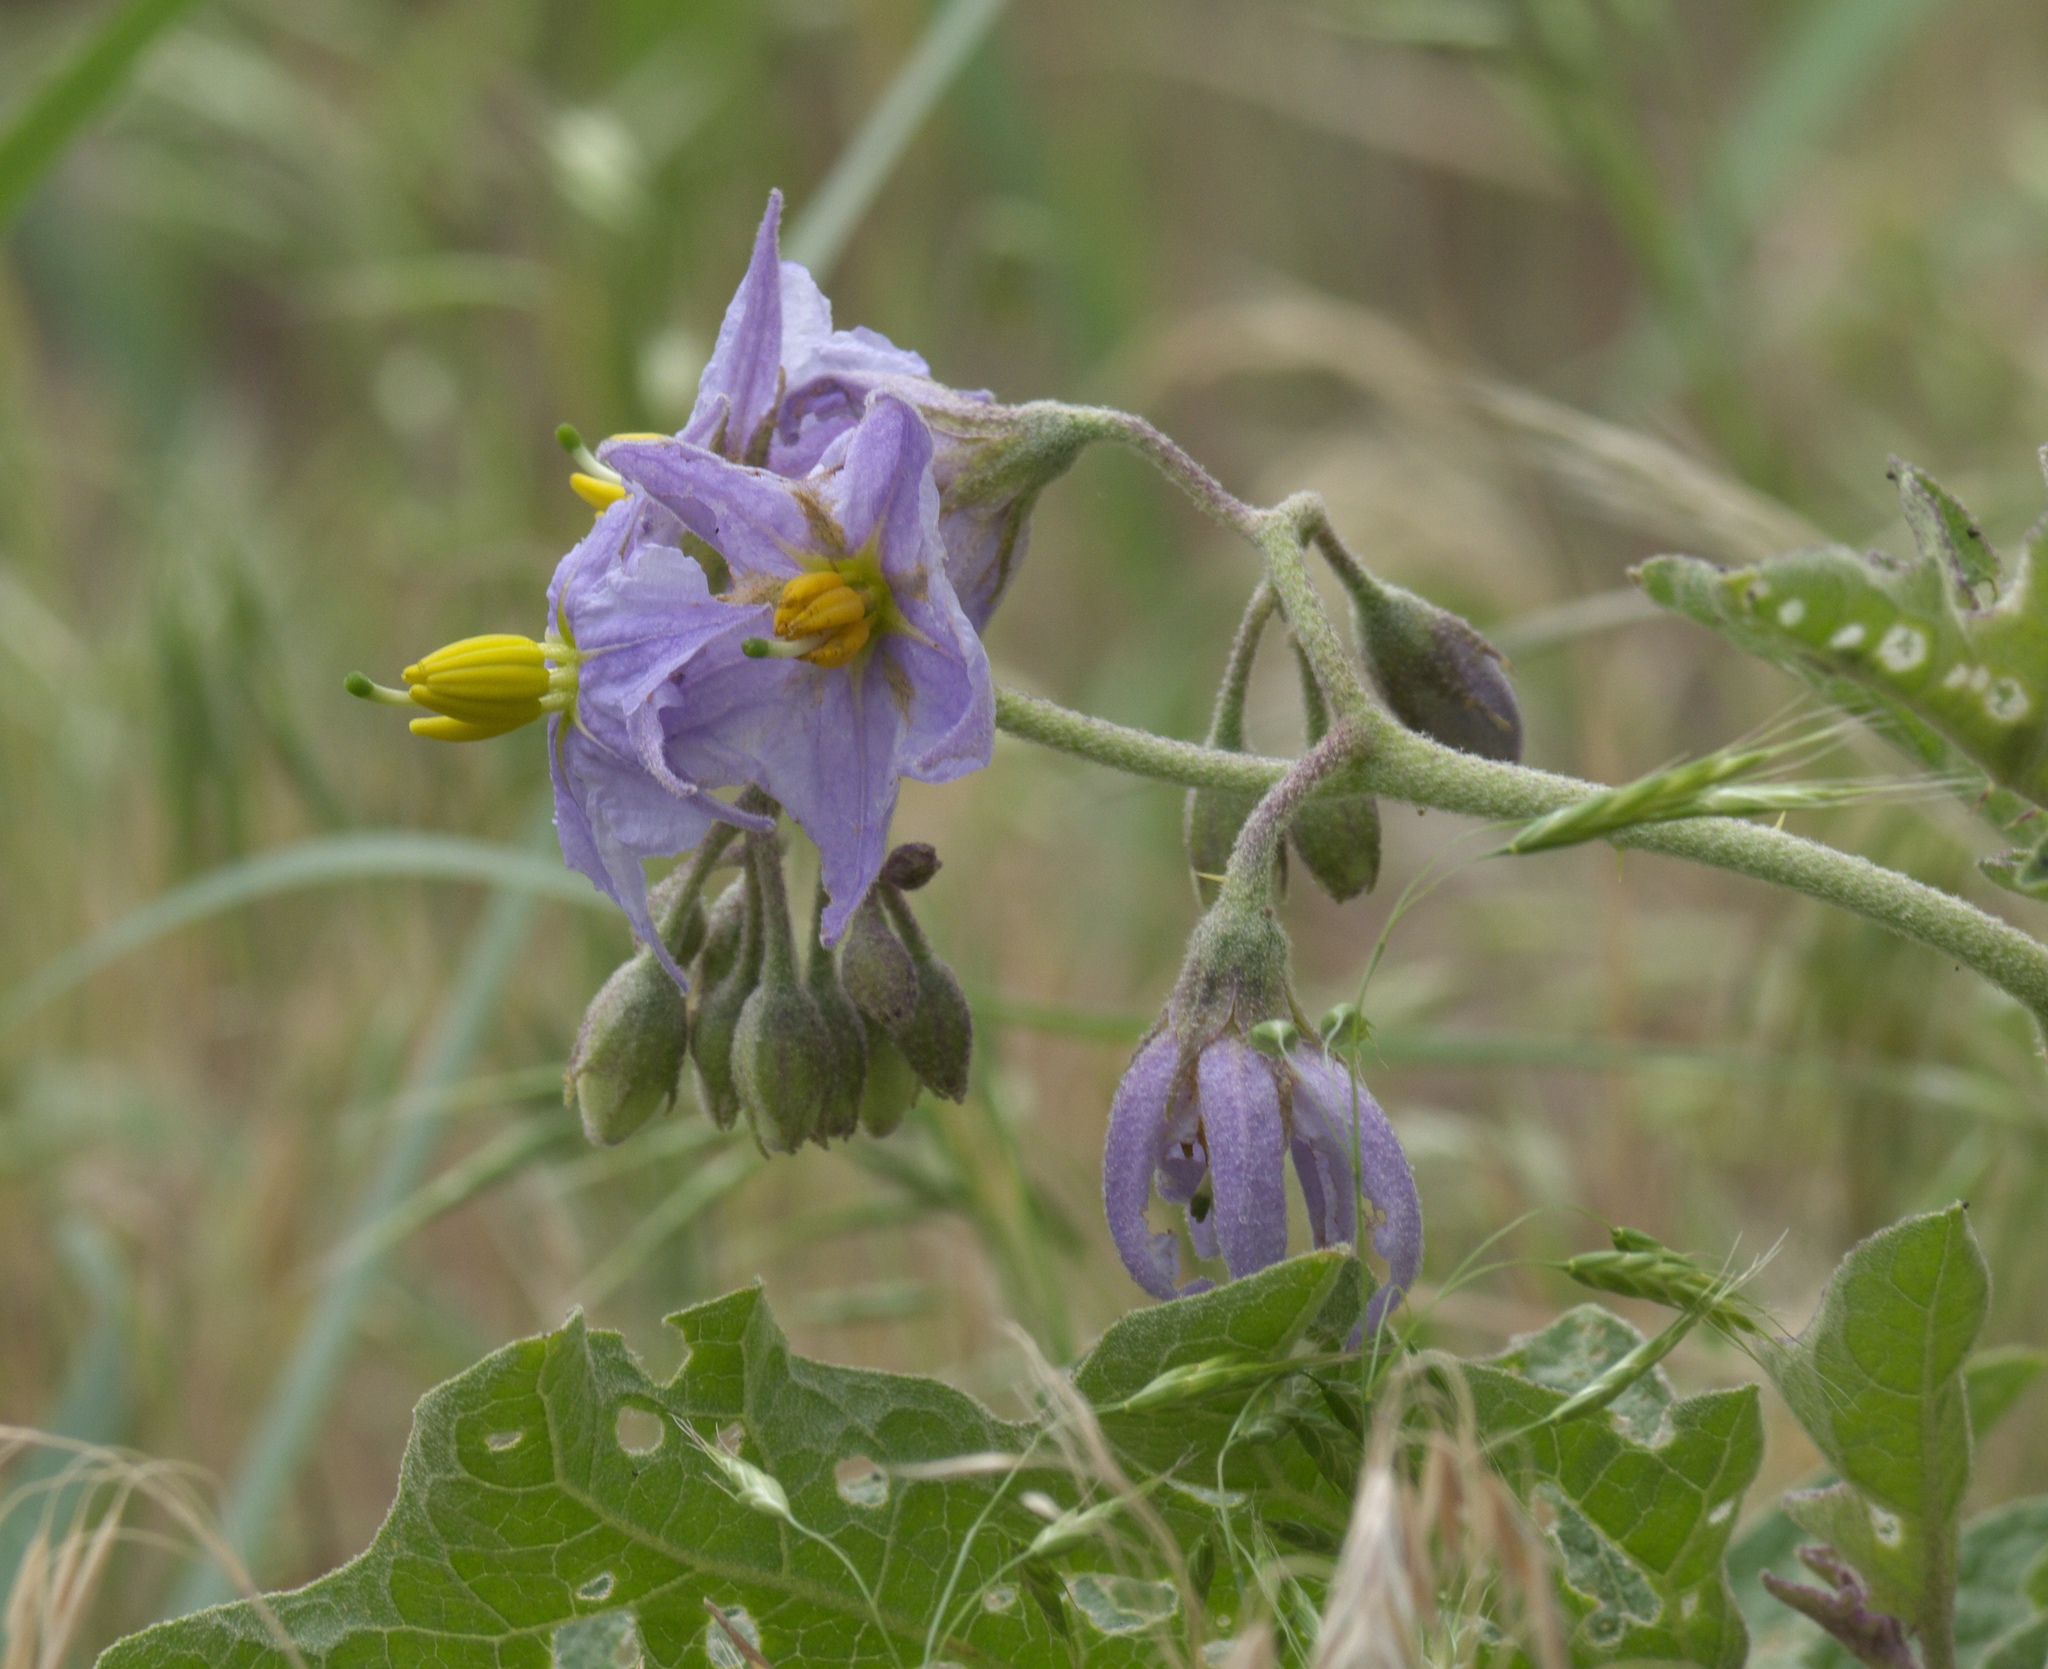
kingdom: Plantae
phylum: Tracheophyta
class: Magnoliopsida
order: Solanales
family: Solanaceae
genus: Solanum
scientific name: Solanum dimidiatum
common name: Carolina horse-nettle
